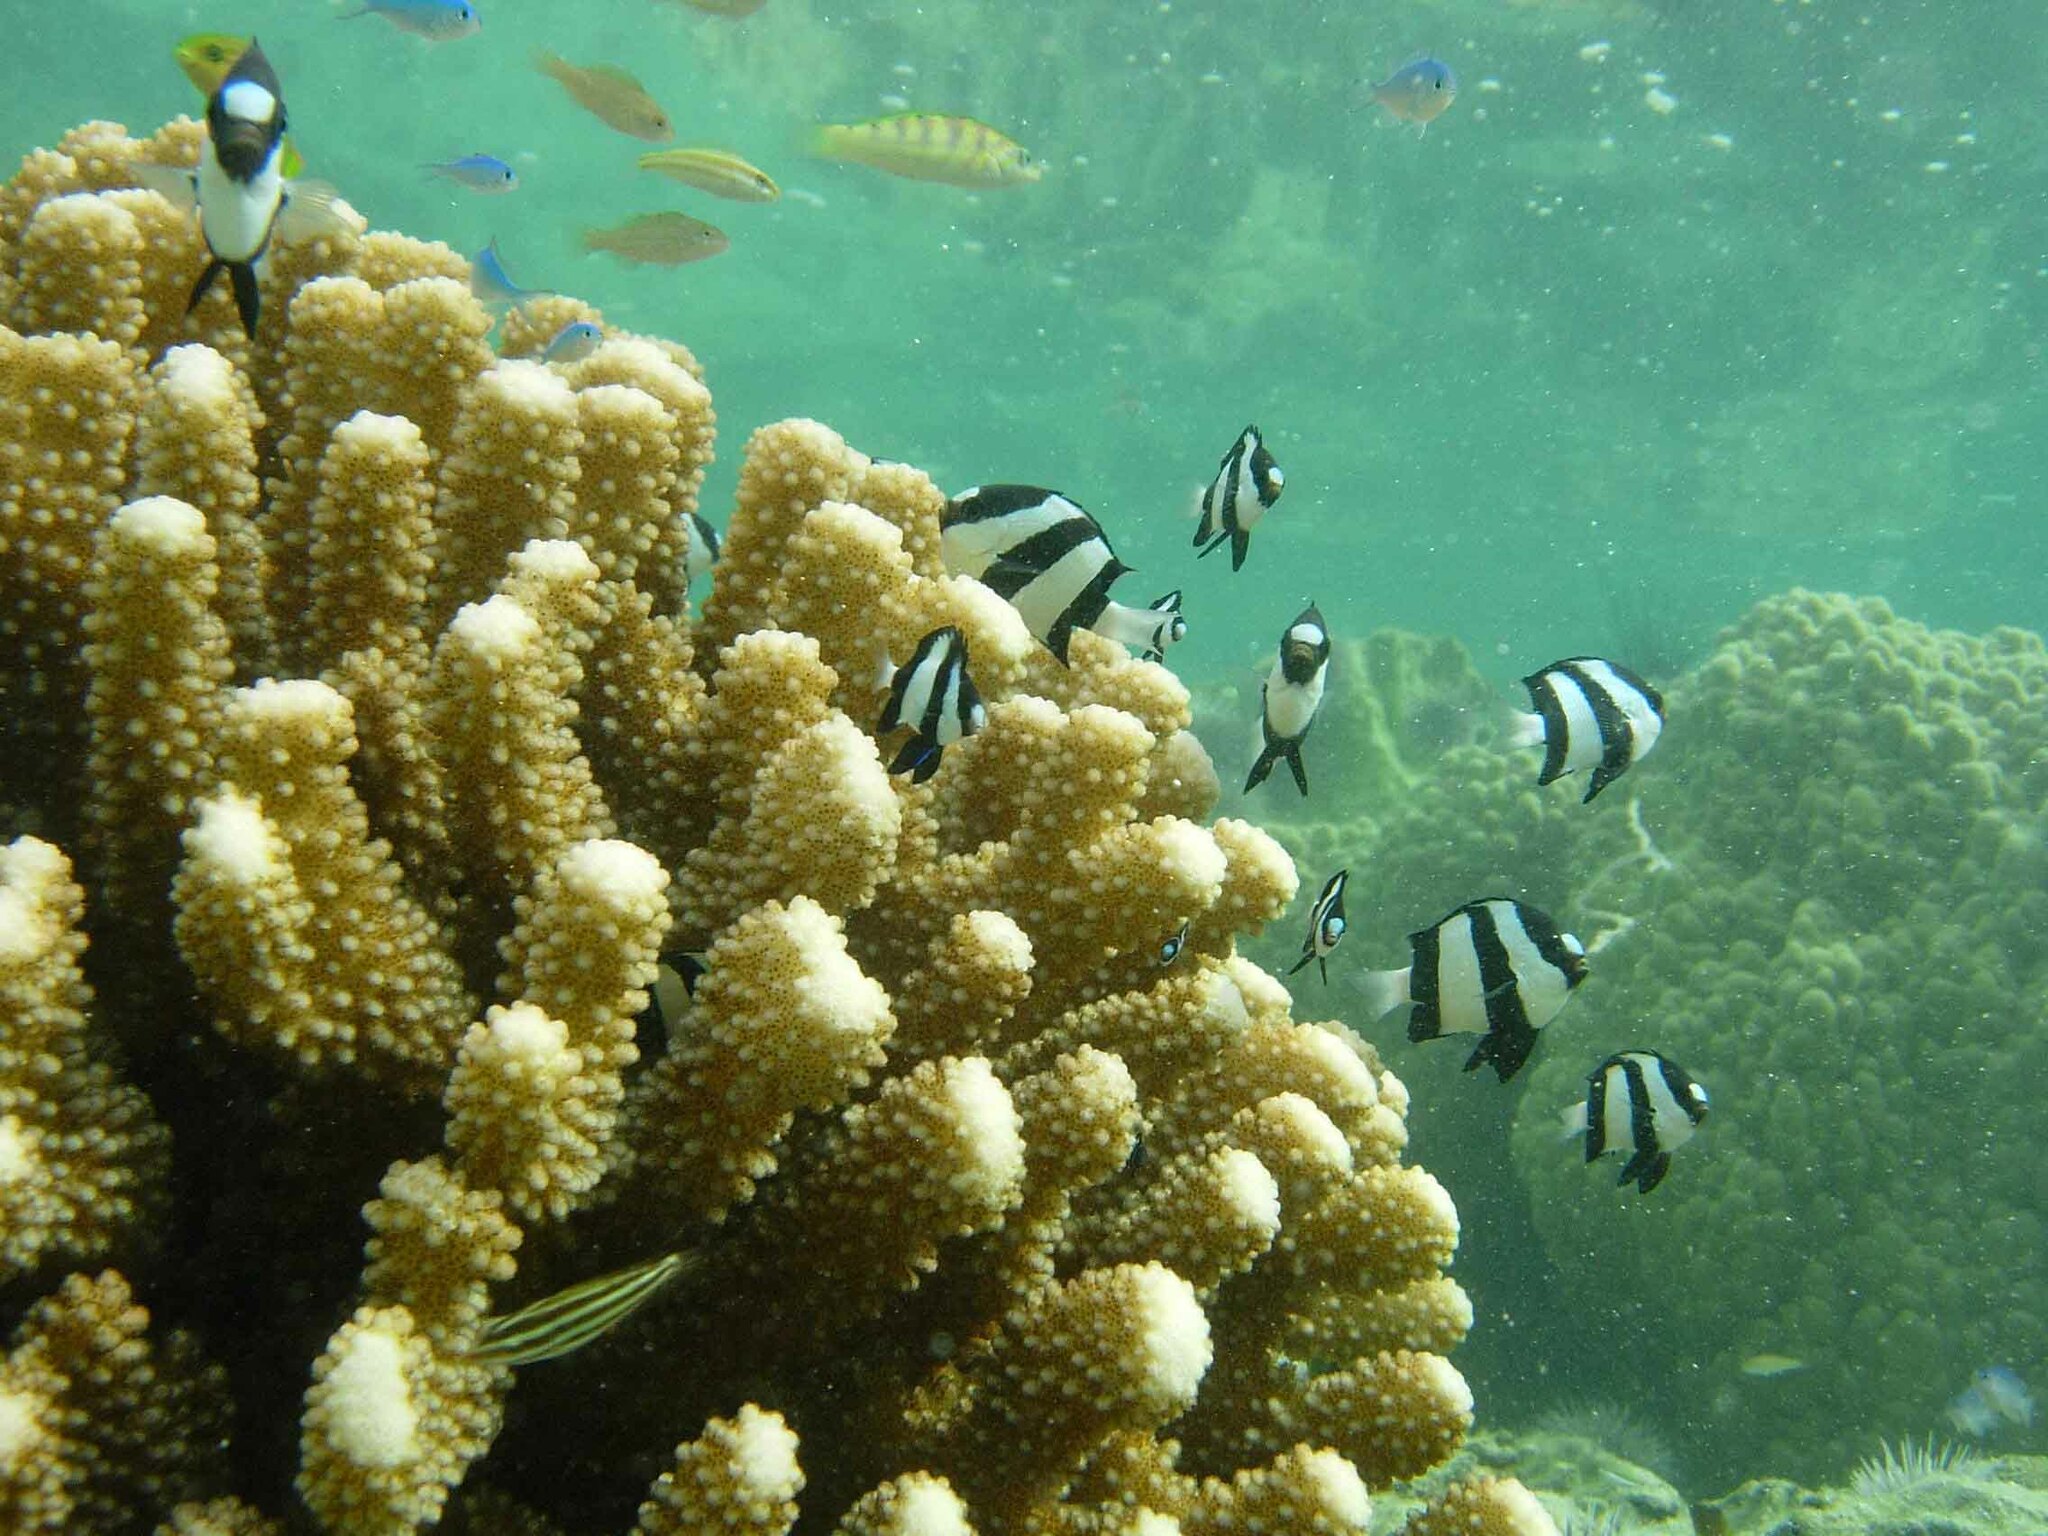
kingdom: Animalia
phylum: Chordata
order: Perciformes
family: Pomacentridae
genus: Dascyllus
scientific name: Dascyllus aruanus
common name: Humbug dascyllus
